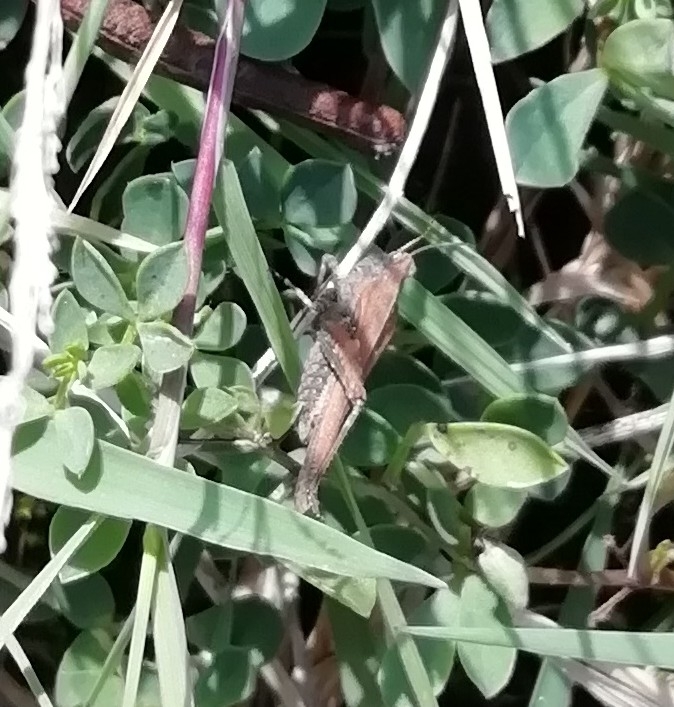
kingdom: Animalia
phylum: Arthropoda
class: Insecta
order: Orthoptera
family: Tetrigidae
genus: Tetrix
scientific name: Tetrix subulata
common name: Slender ground-hopper
